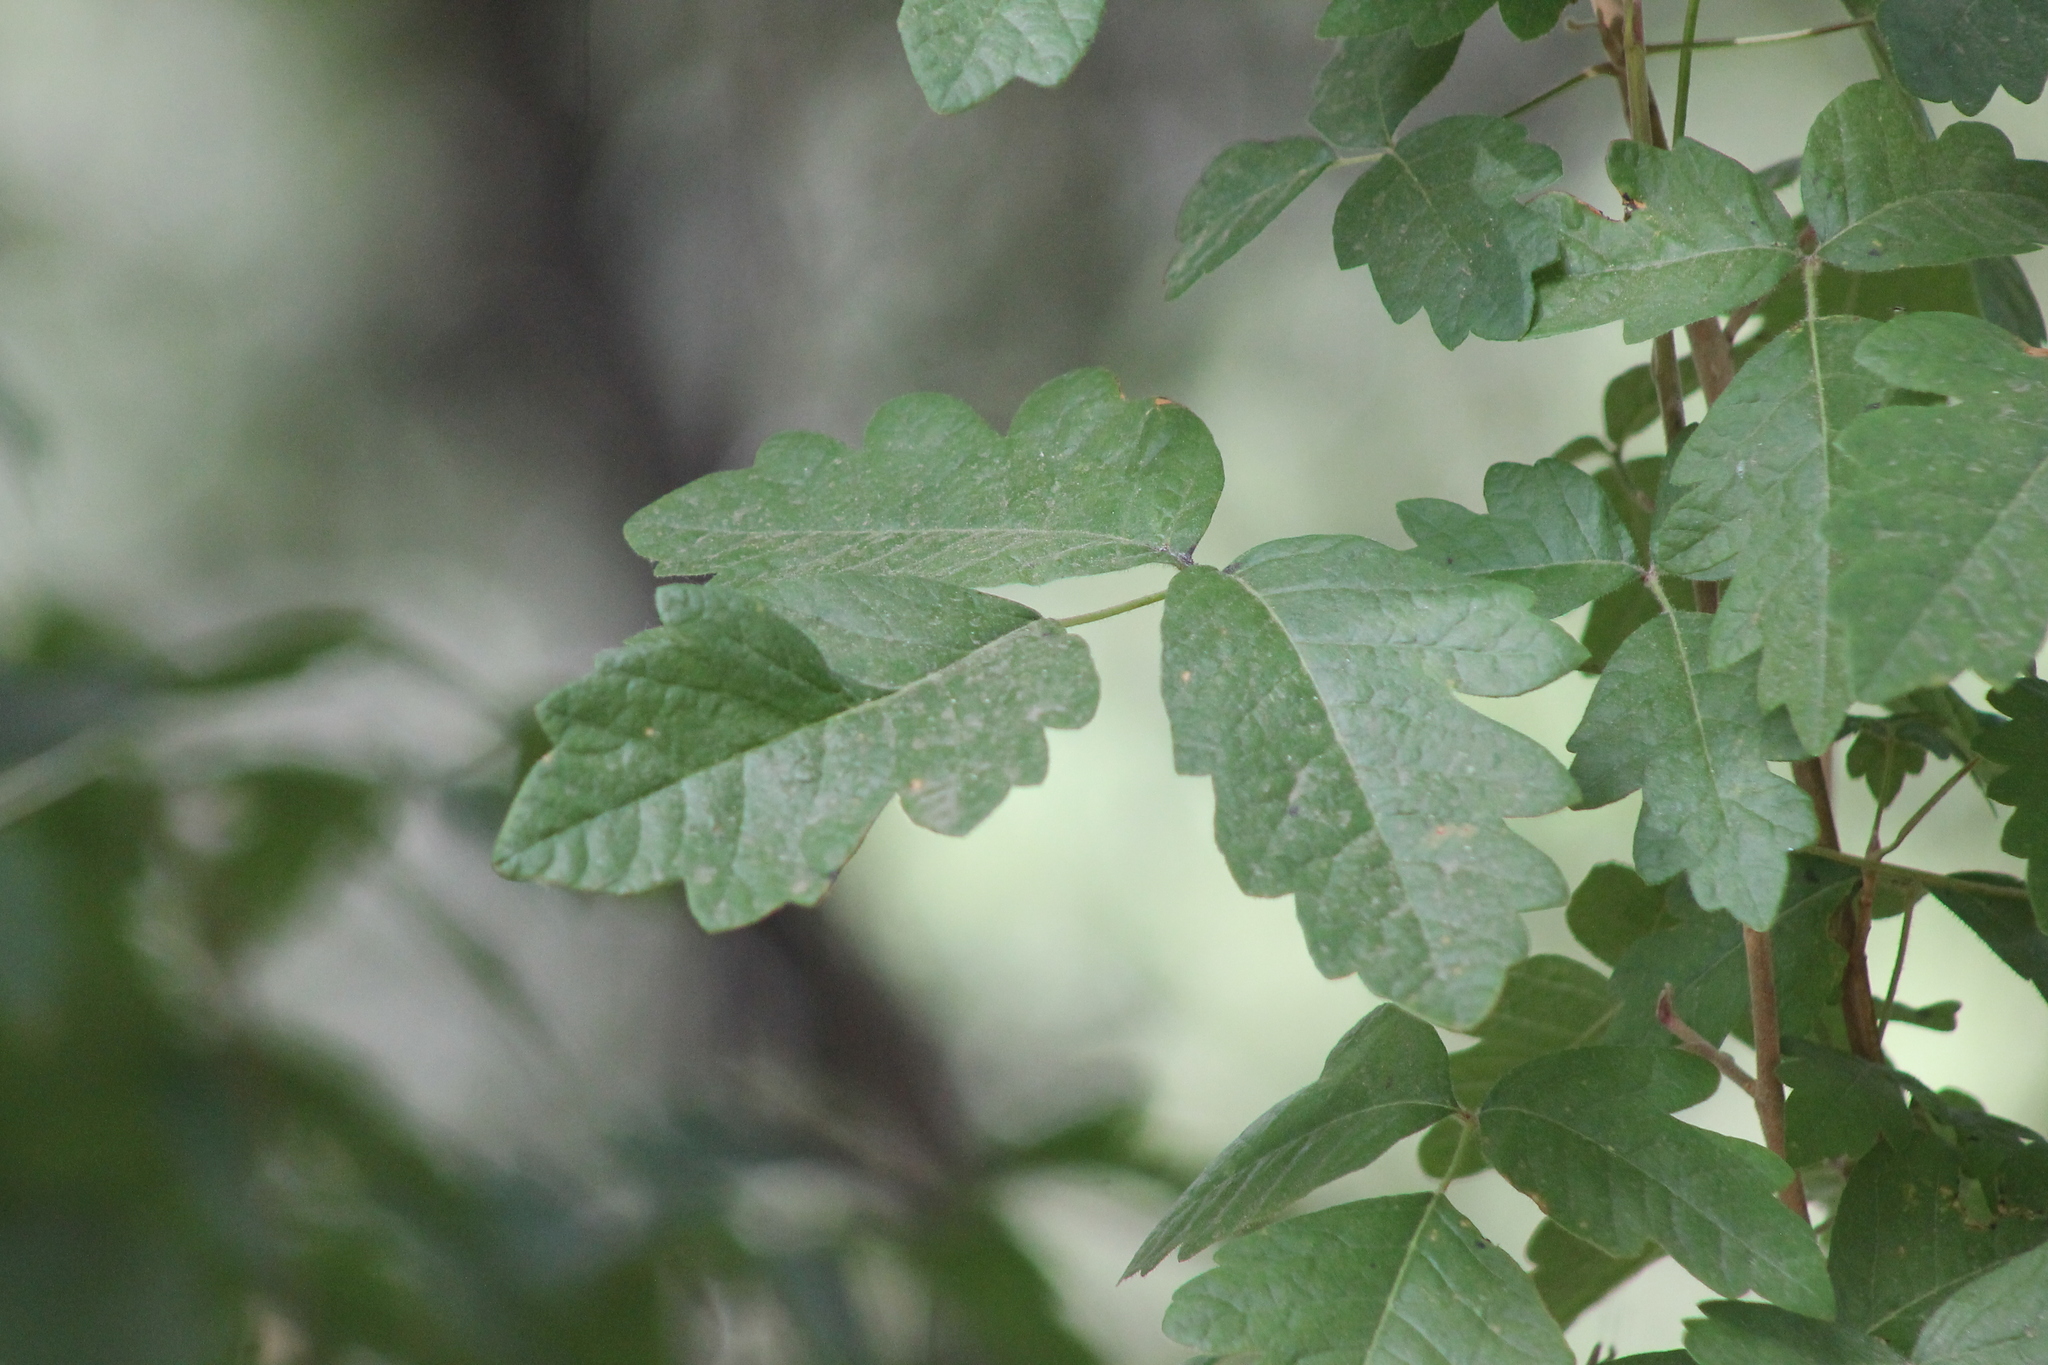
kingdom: Plantae
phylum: Tracheophyta
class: Magnoliopsida
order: Sapindales
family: Anacardiaceae
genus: Toxicodendron
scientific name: Toxicodendron diversilobum
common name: Pacific poison-oak
